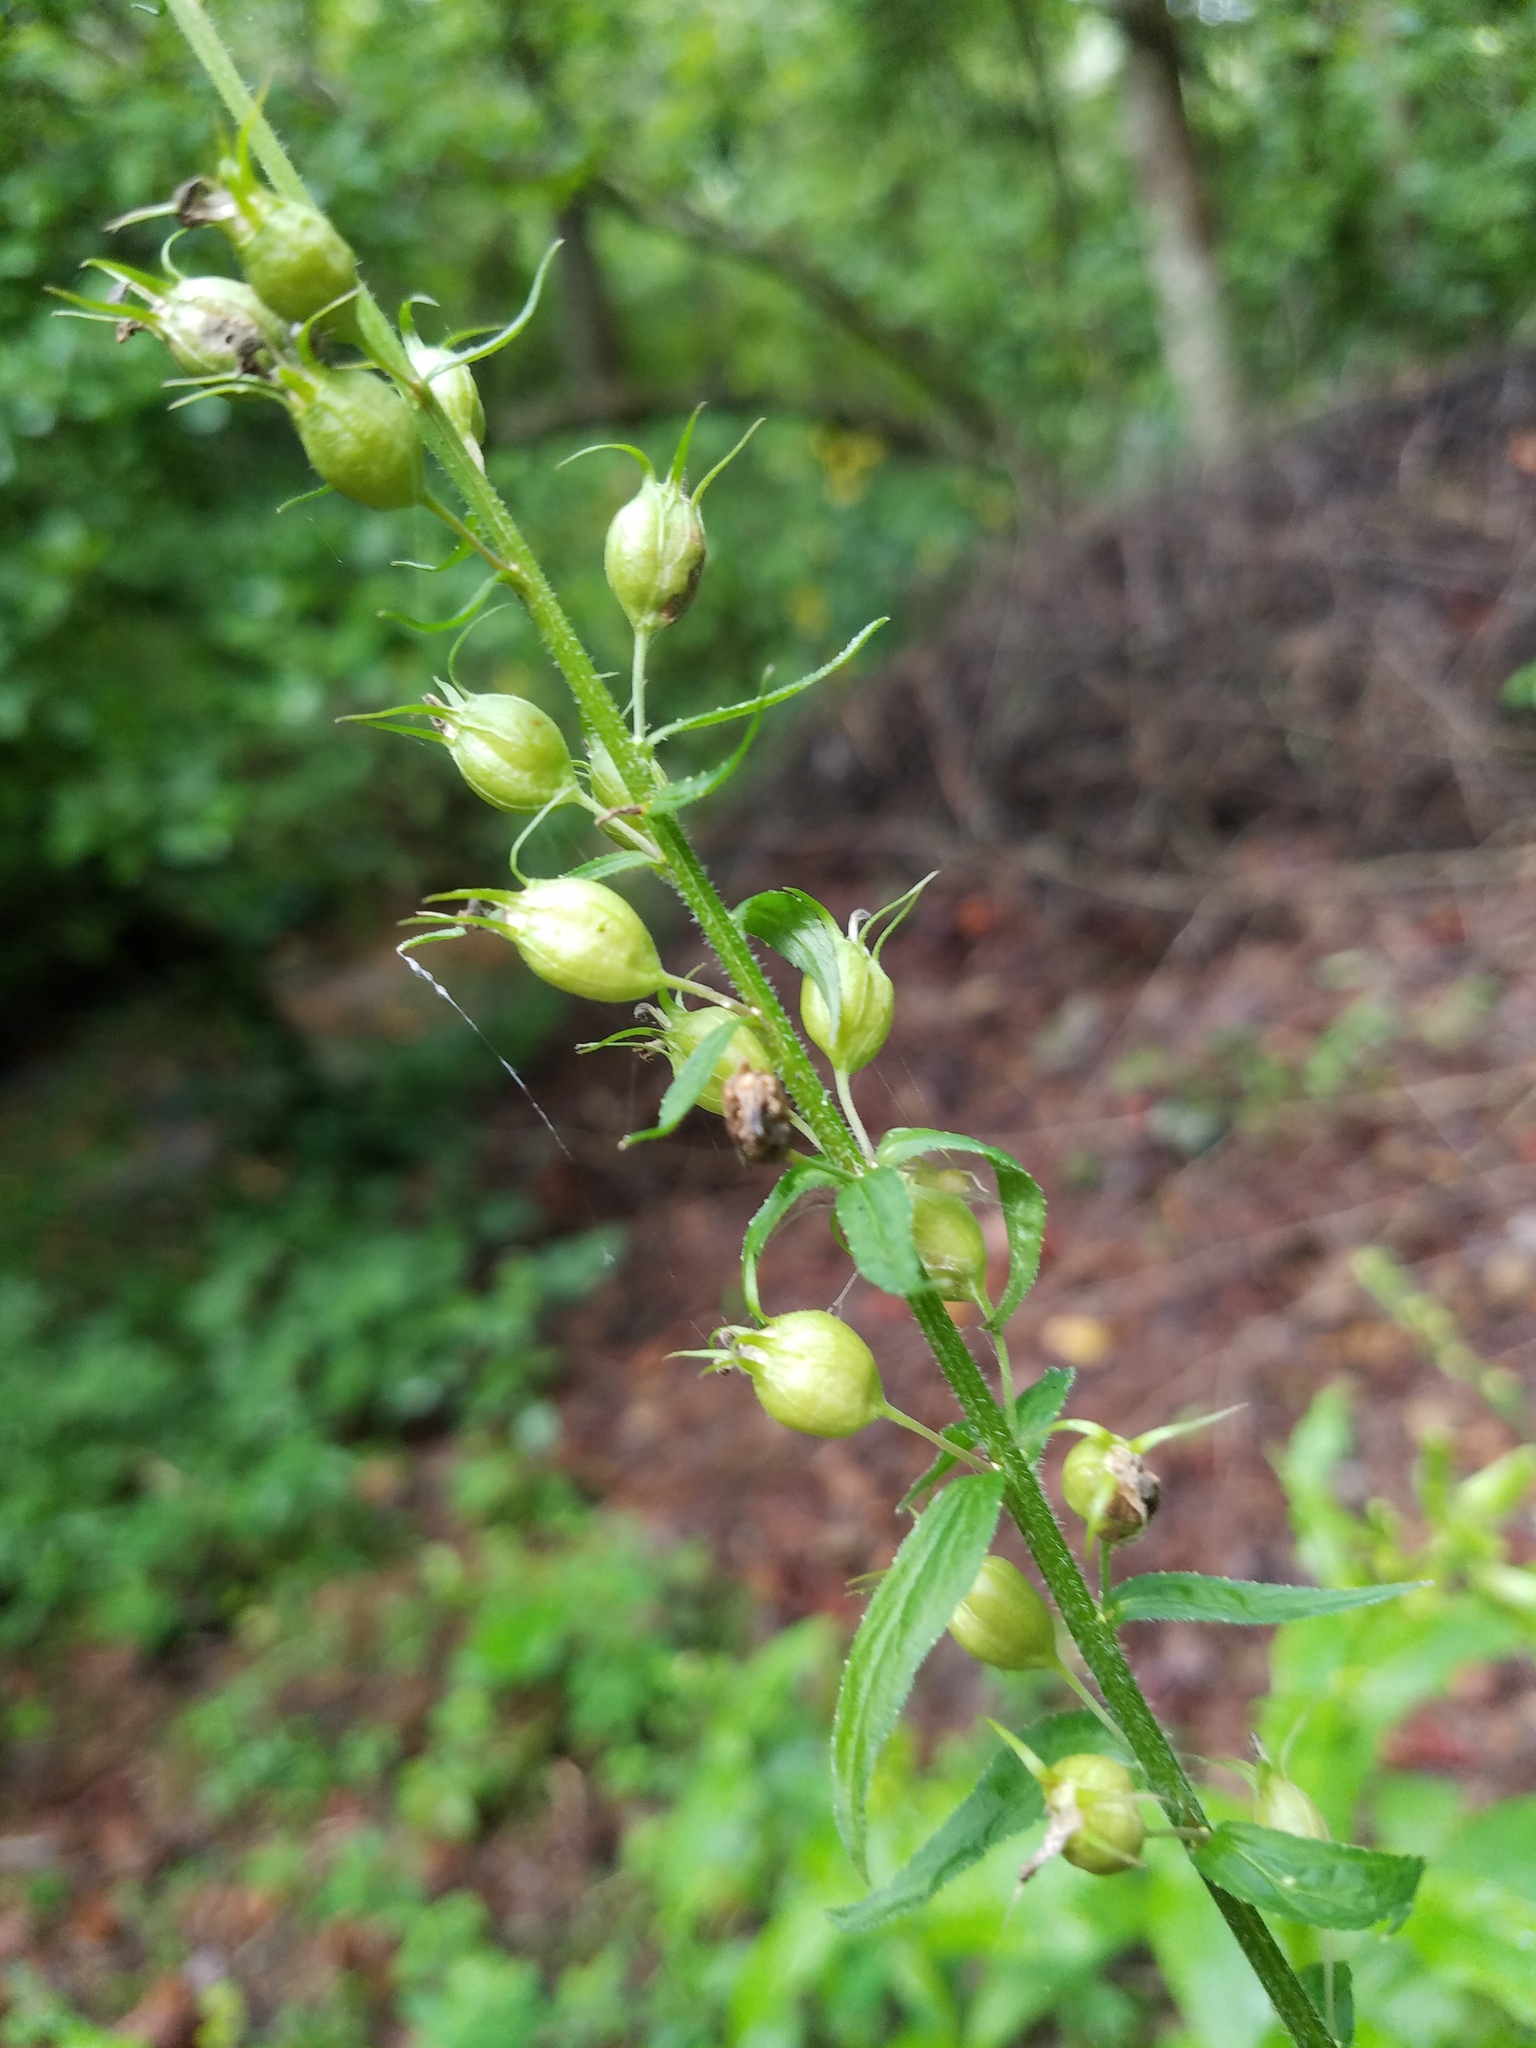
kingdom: Plantae
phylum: Tracheophyta
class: Magnoliopsida
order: Asterales
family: Campanulaceae
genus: Lobelia
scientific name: Lobelia inflata
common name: Indian tobacco
